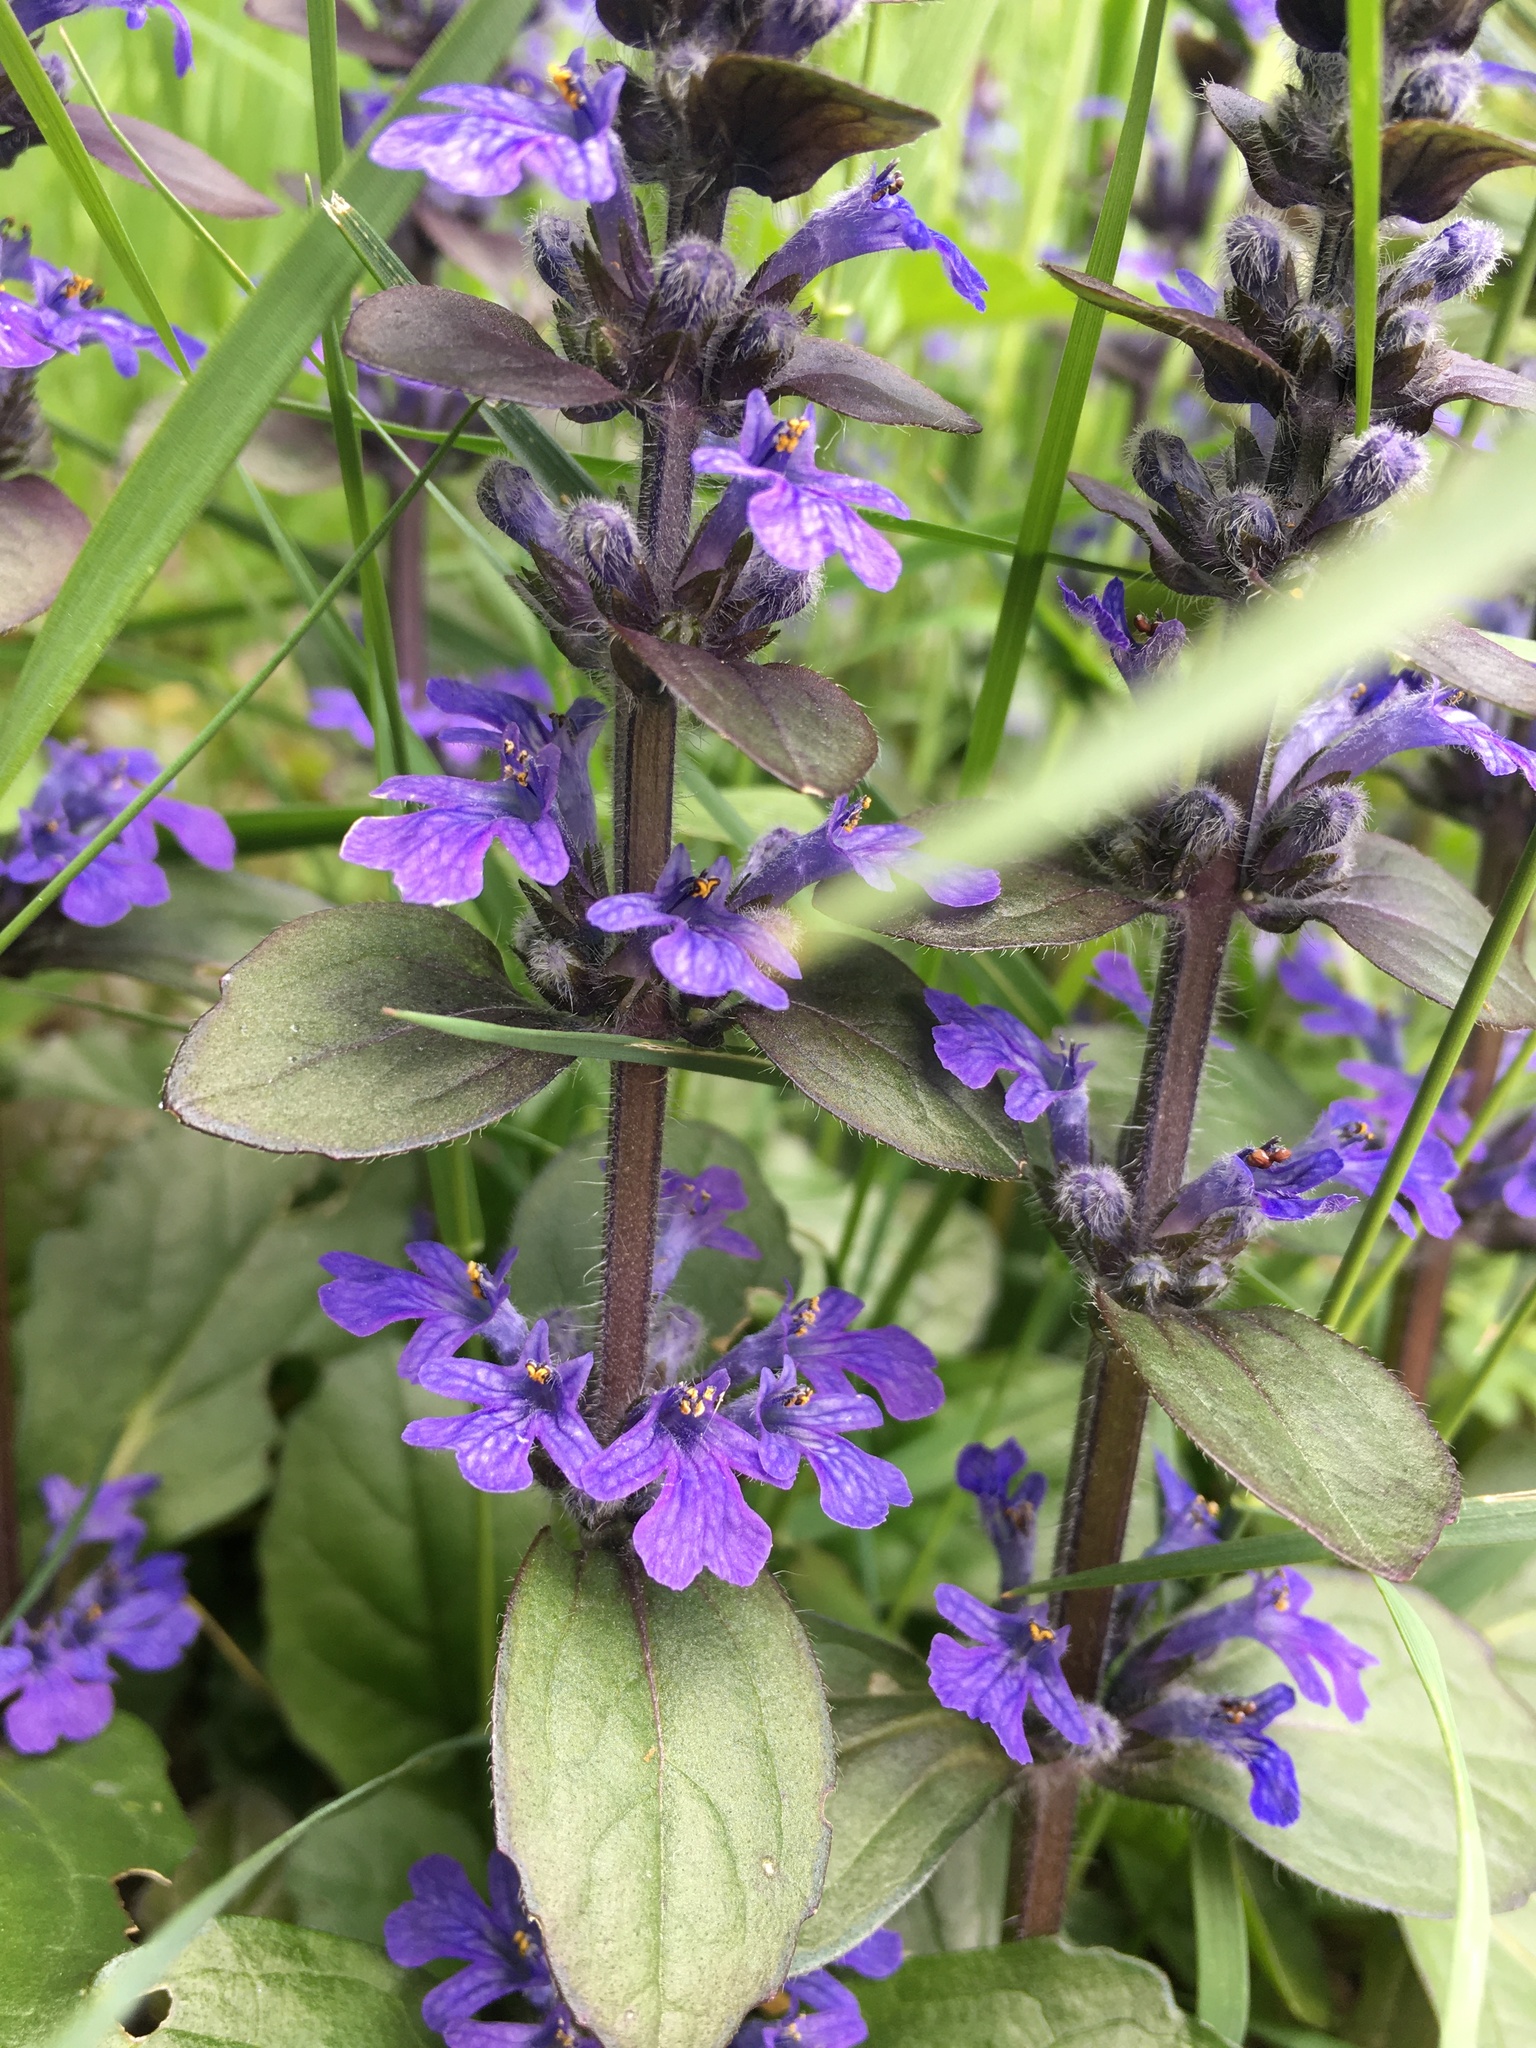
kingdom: Plantae
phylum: Tracheophyta
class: Magnoliopsida
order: Lamiales
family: Lamiaceae
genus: Ajuga
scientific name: Ajuga reptans
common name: Bugle
